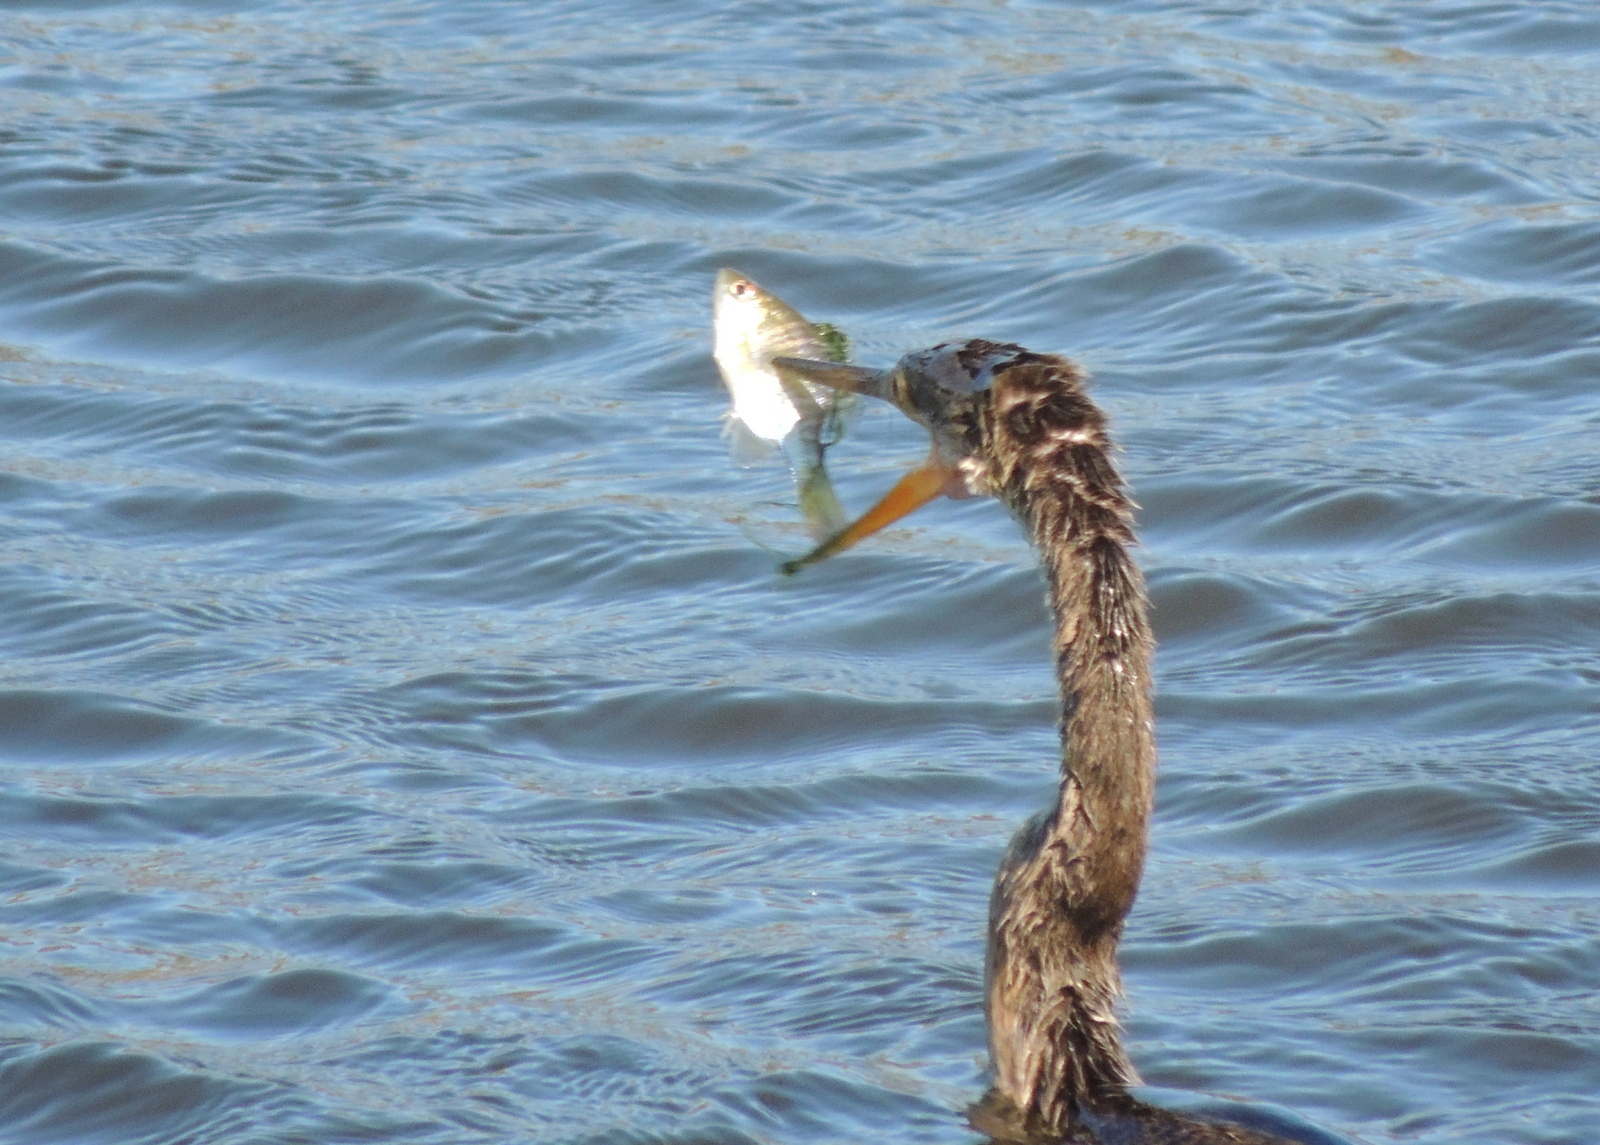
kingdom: Animalia
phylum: Chordata
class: Aves
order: Suliformes
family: Anhingidae
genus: Anhinga
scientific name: Anhinga anhinga
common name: Anhinga
